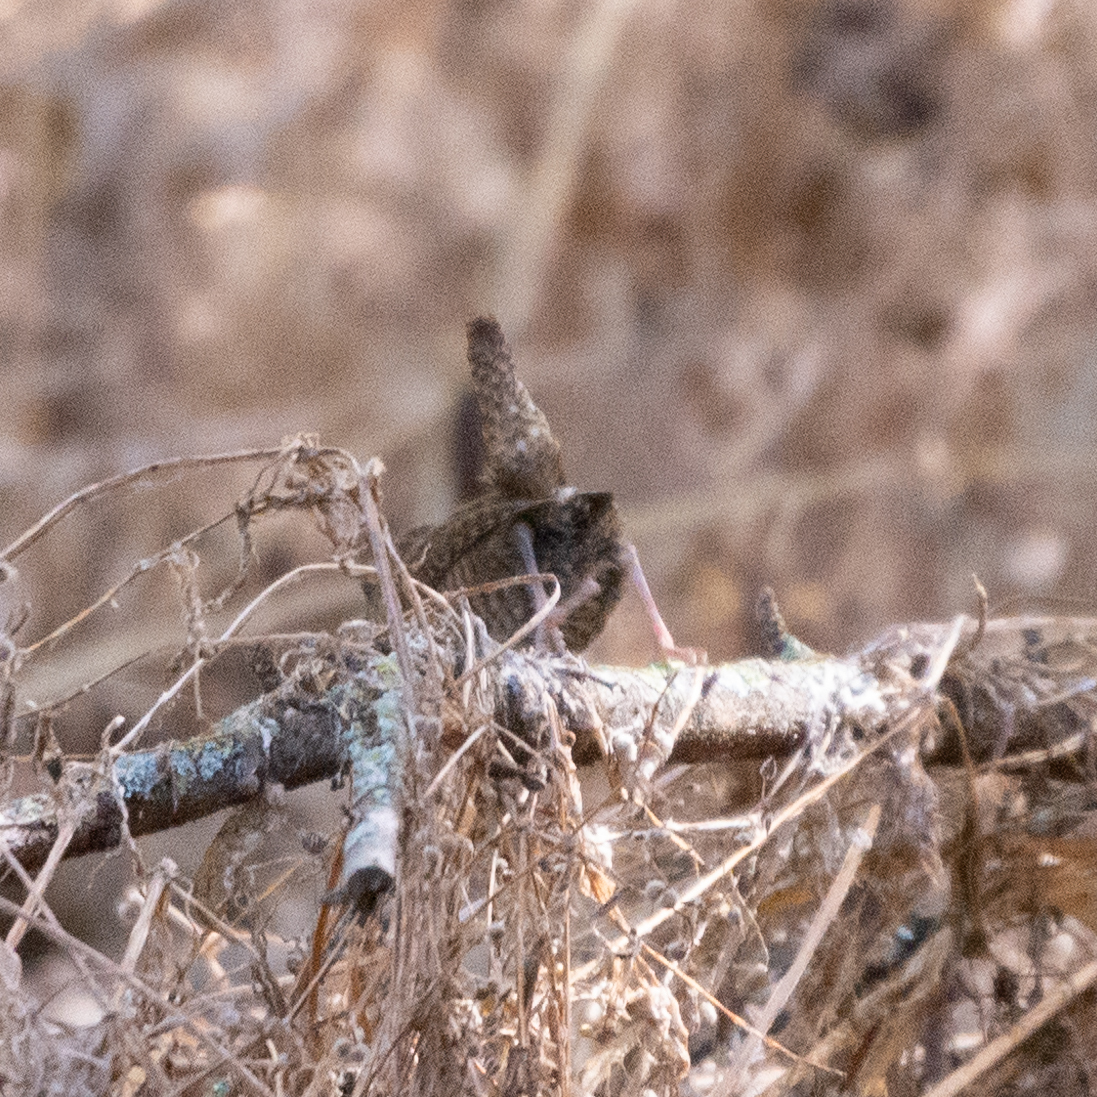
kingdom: Animalia
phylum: Chordata
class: Aves
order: Passeriformes
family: Troglodytidae
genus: Troglodytes
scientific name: Troglodytes troglodytes
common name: Eurasian wren
